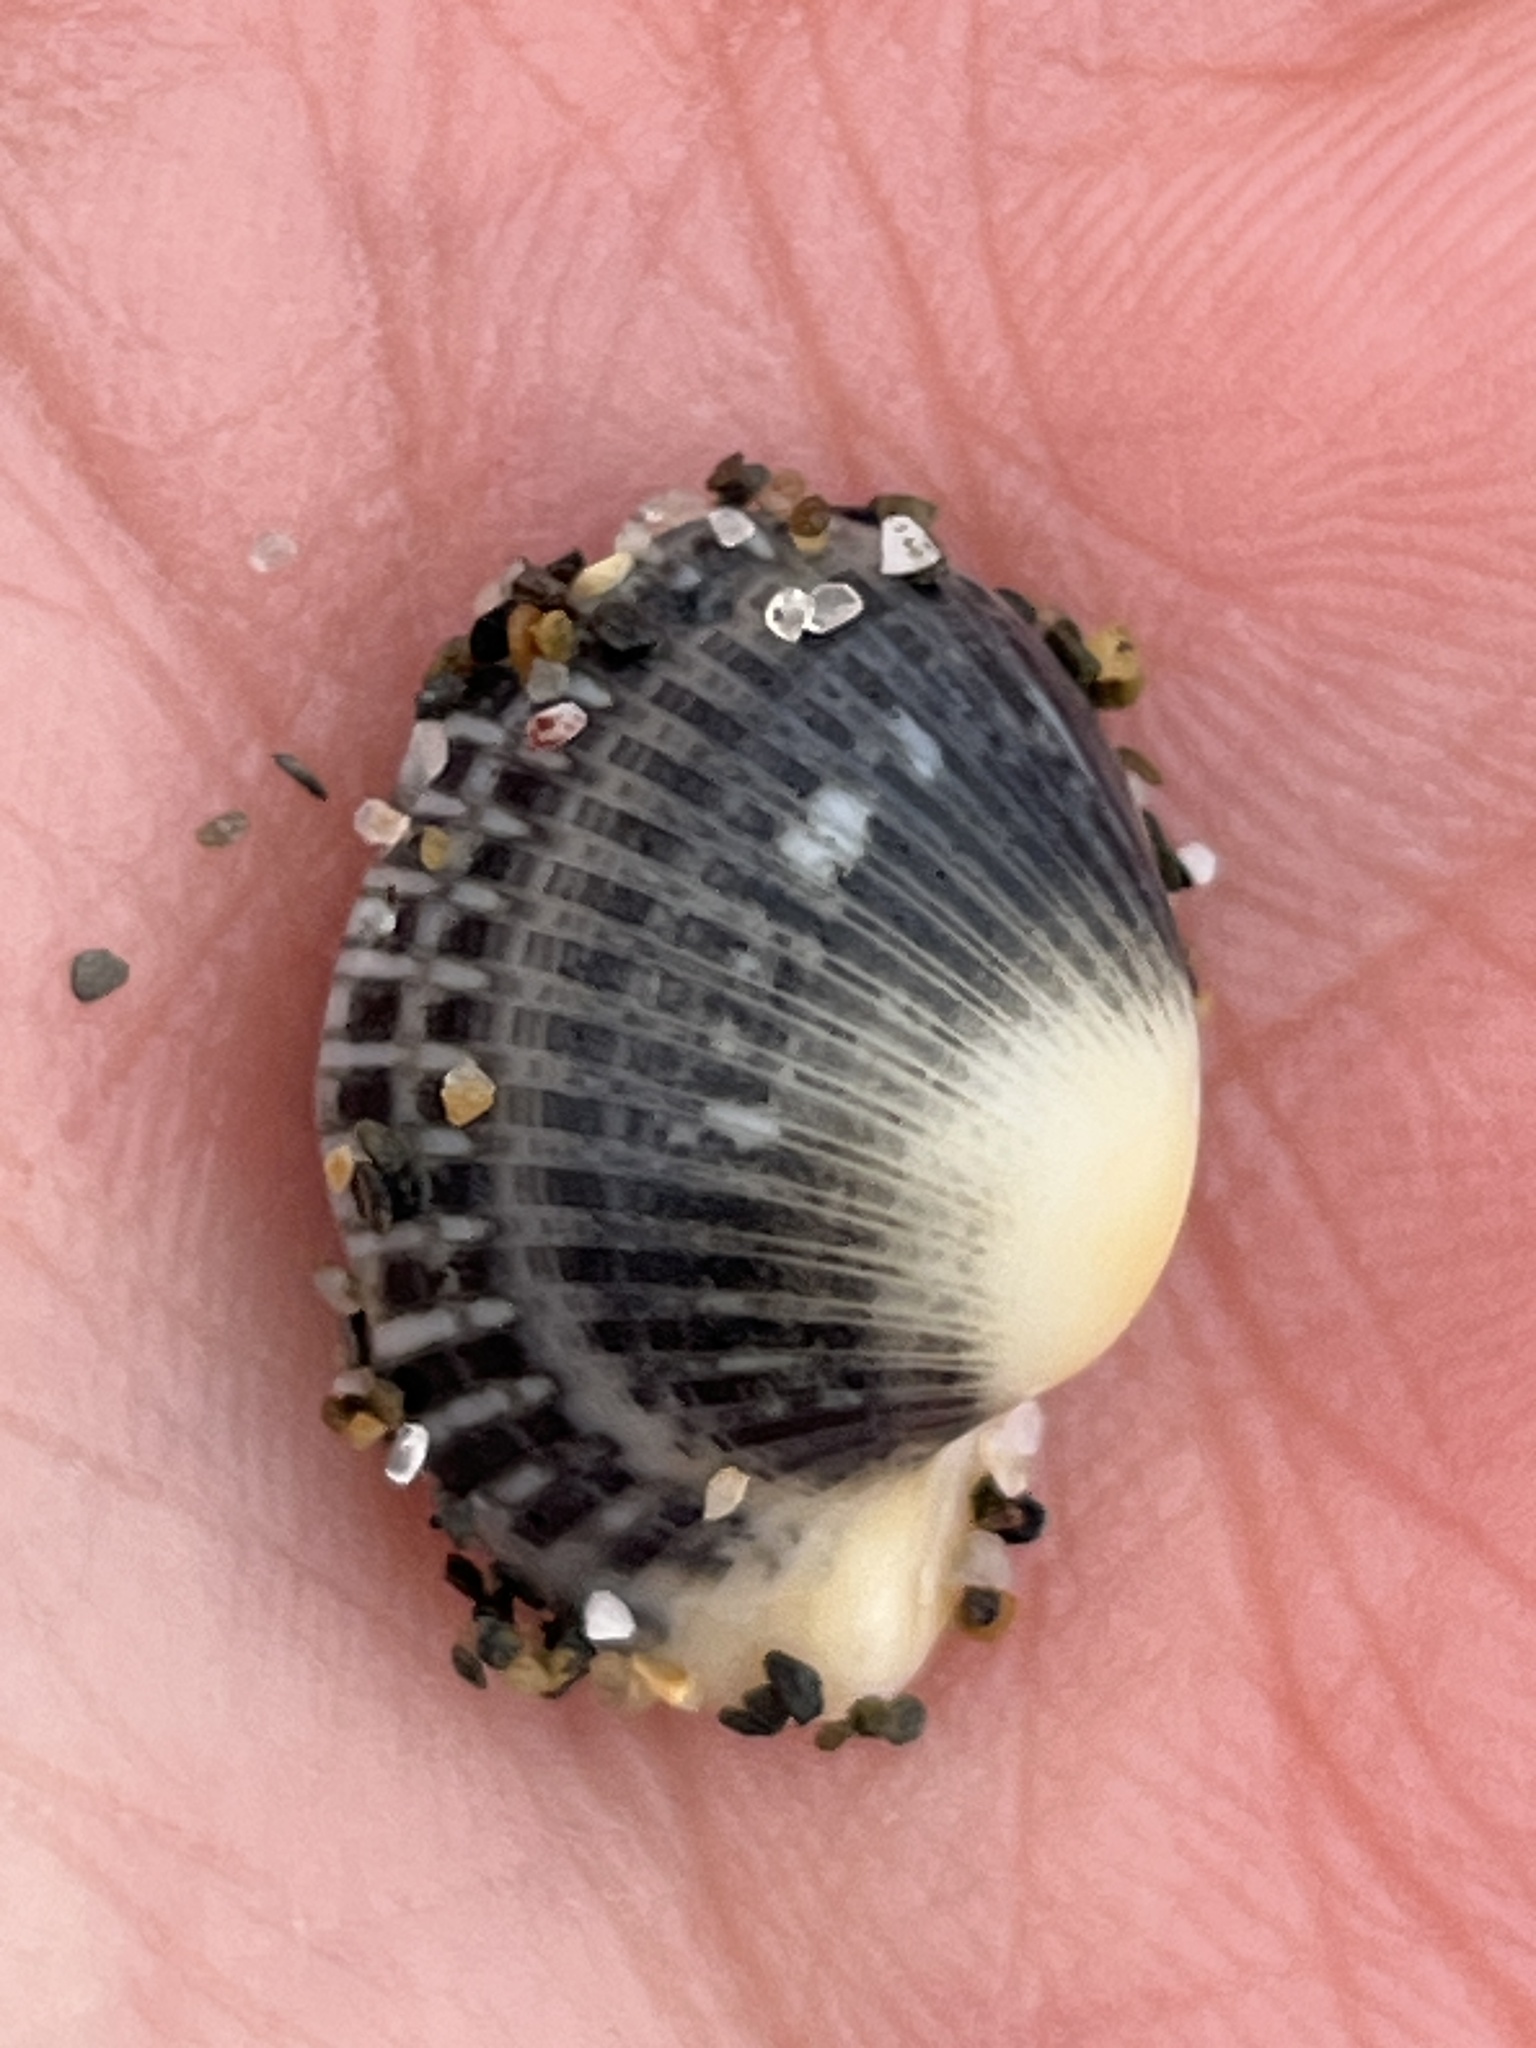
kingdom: Animalia
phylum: Mollusca
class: Bivalvia
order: Arcida
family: Arcidae
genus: Anadara
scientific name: Anadara gibbosa
